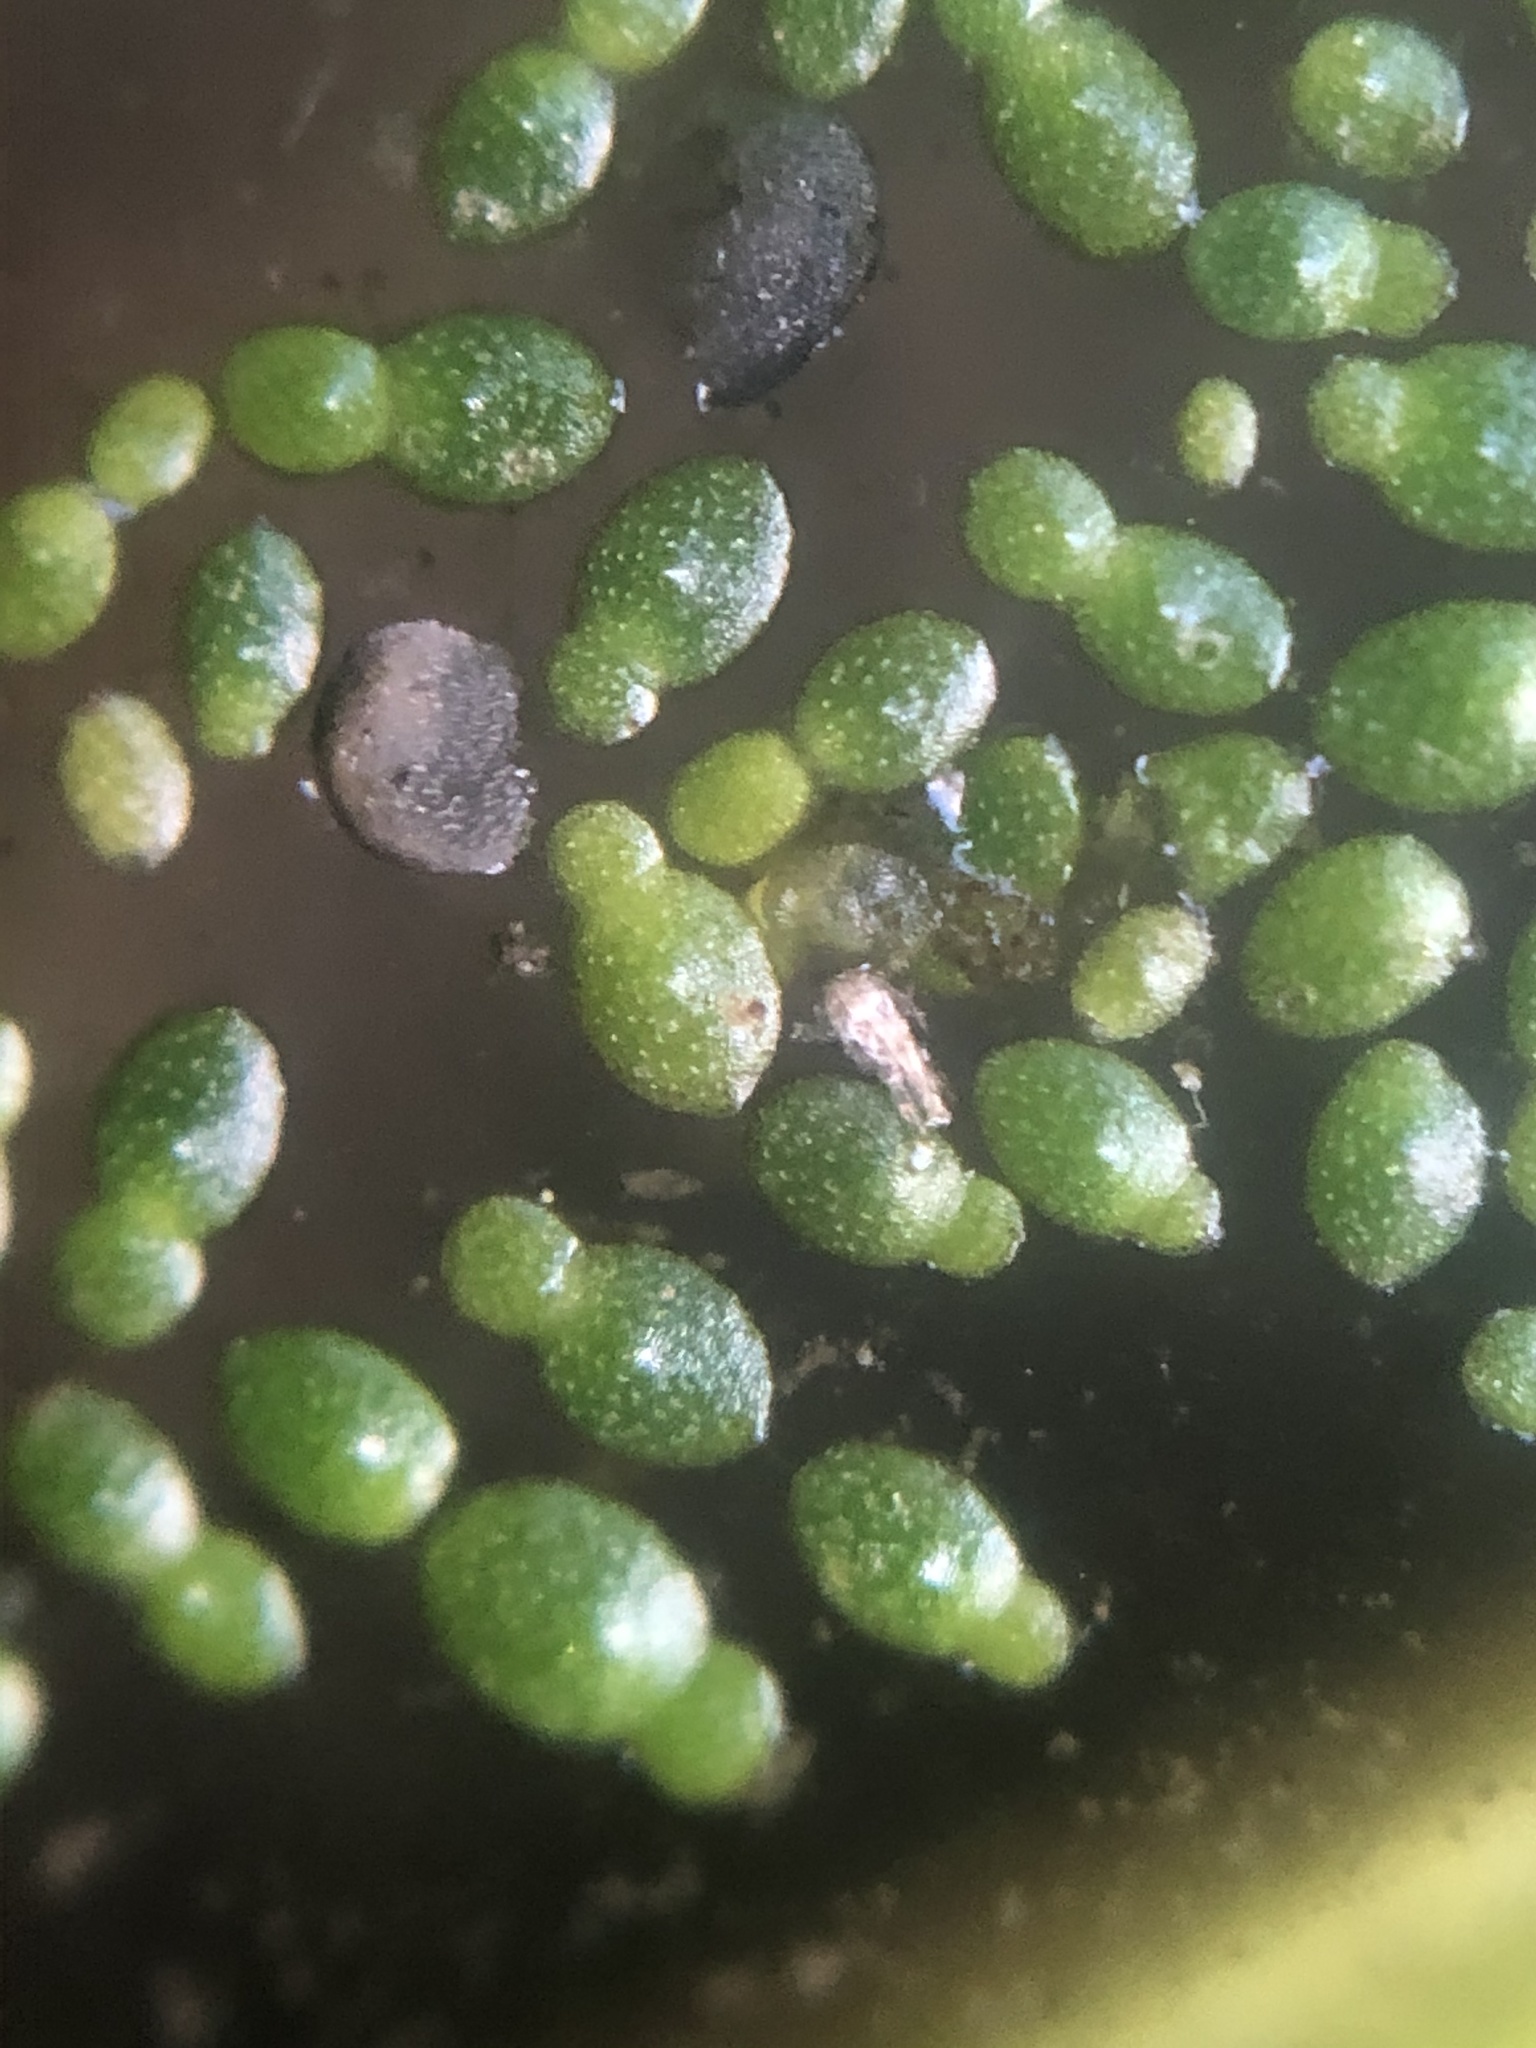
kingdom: Plantae
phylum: Tracheophyta
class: Liliopsida
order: Alismatales
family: Araceae
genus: Wolffia
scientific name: Wolffia brasiliensis
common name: Brazilian watermeal
